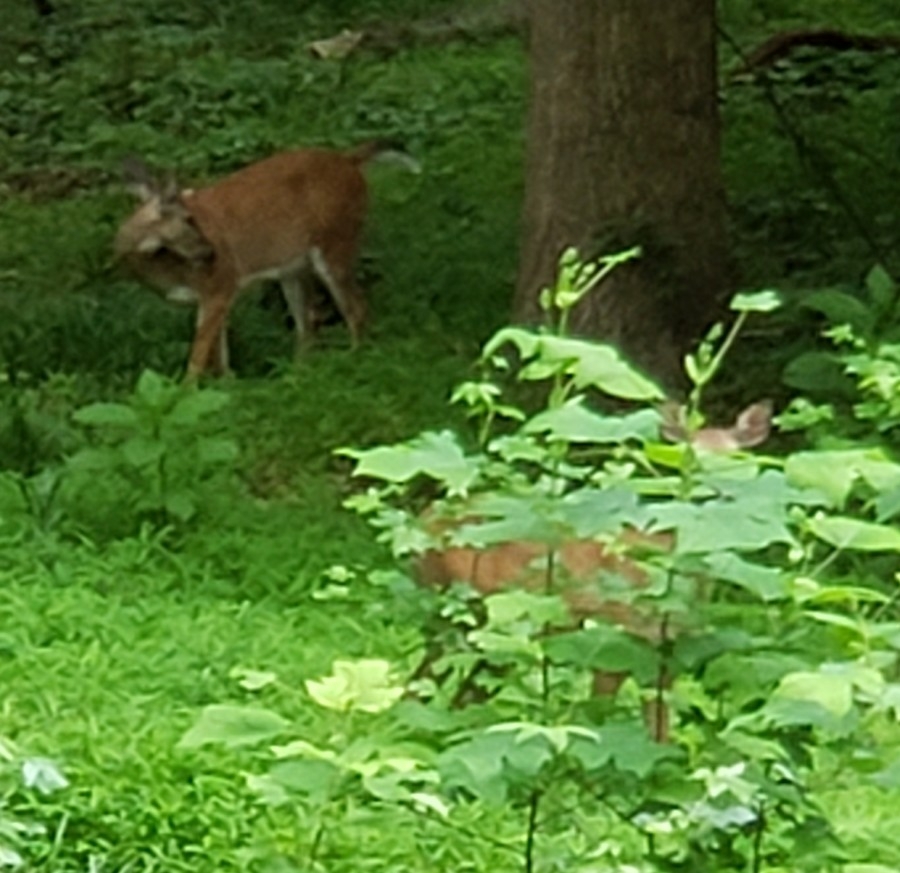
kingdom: Animalia
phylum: Chordata
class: Mammalia
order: Artiodactyla
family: Cervidae
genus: Odocoileus
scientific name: Odocoileus virginianus
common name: White-tailed deer
